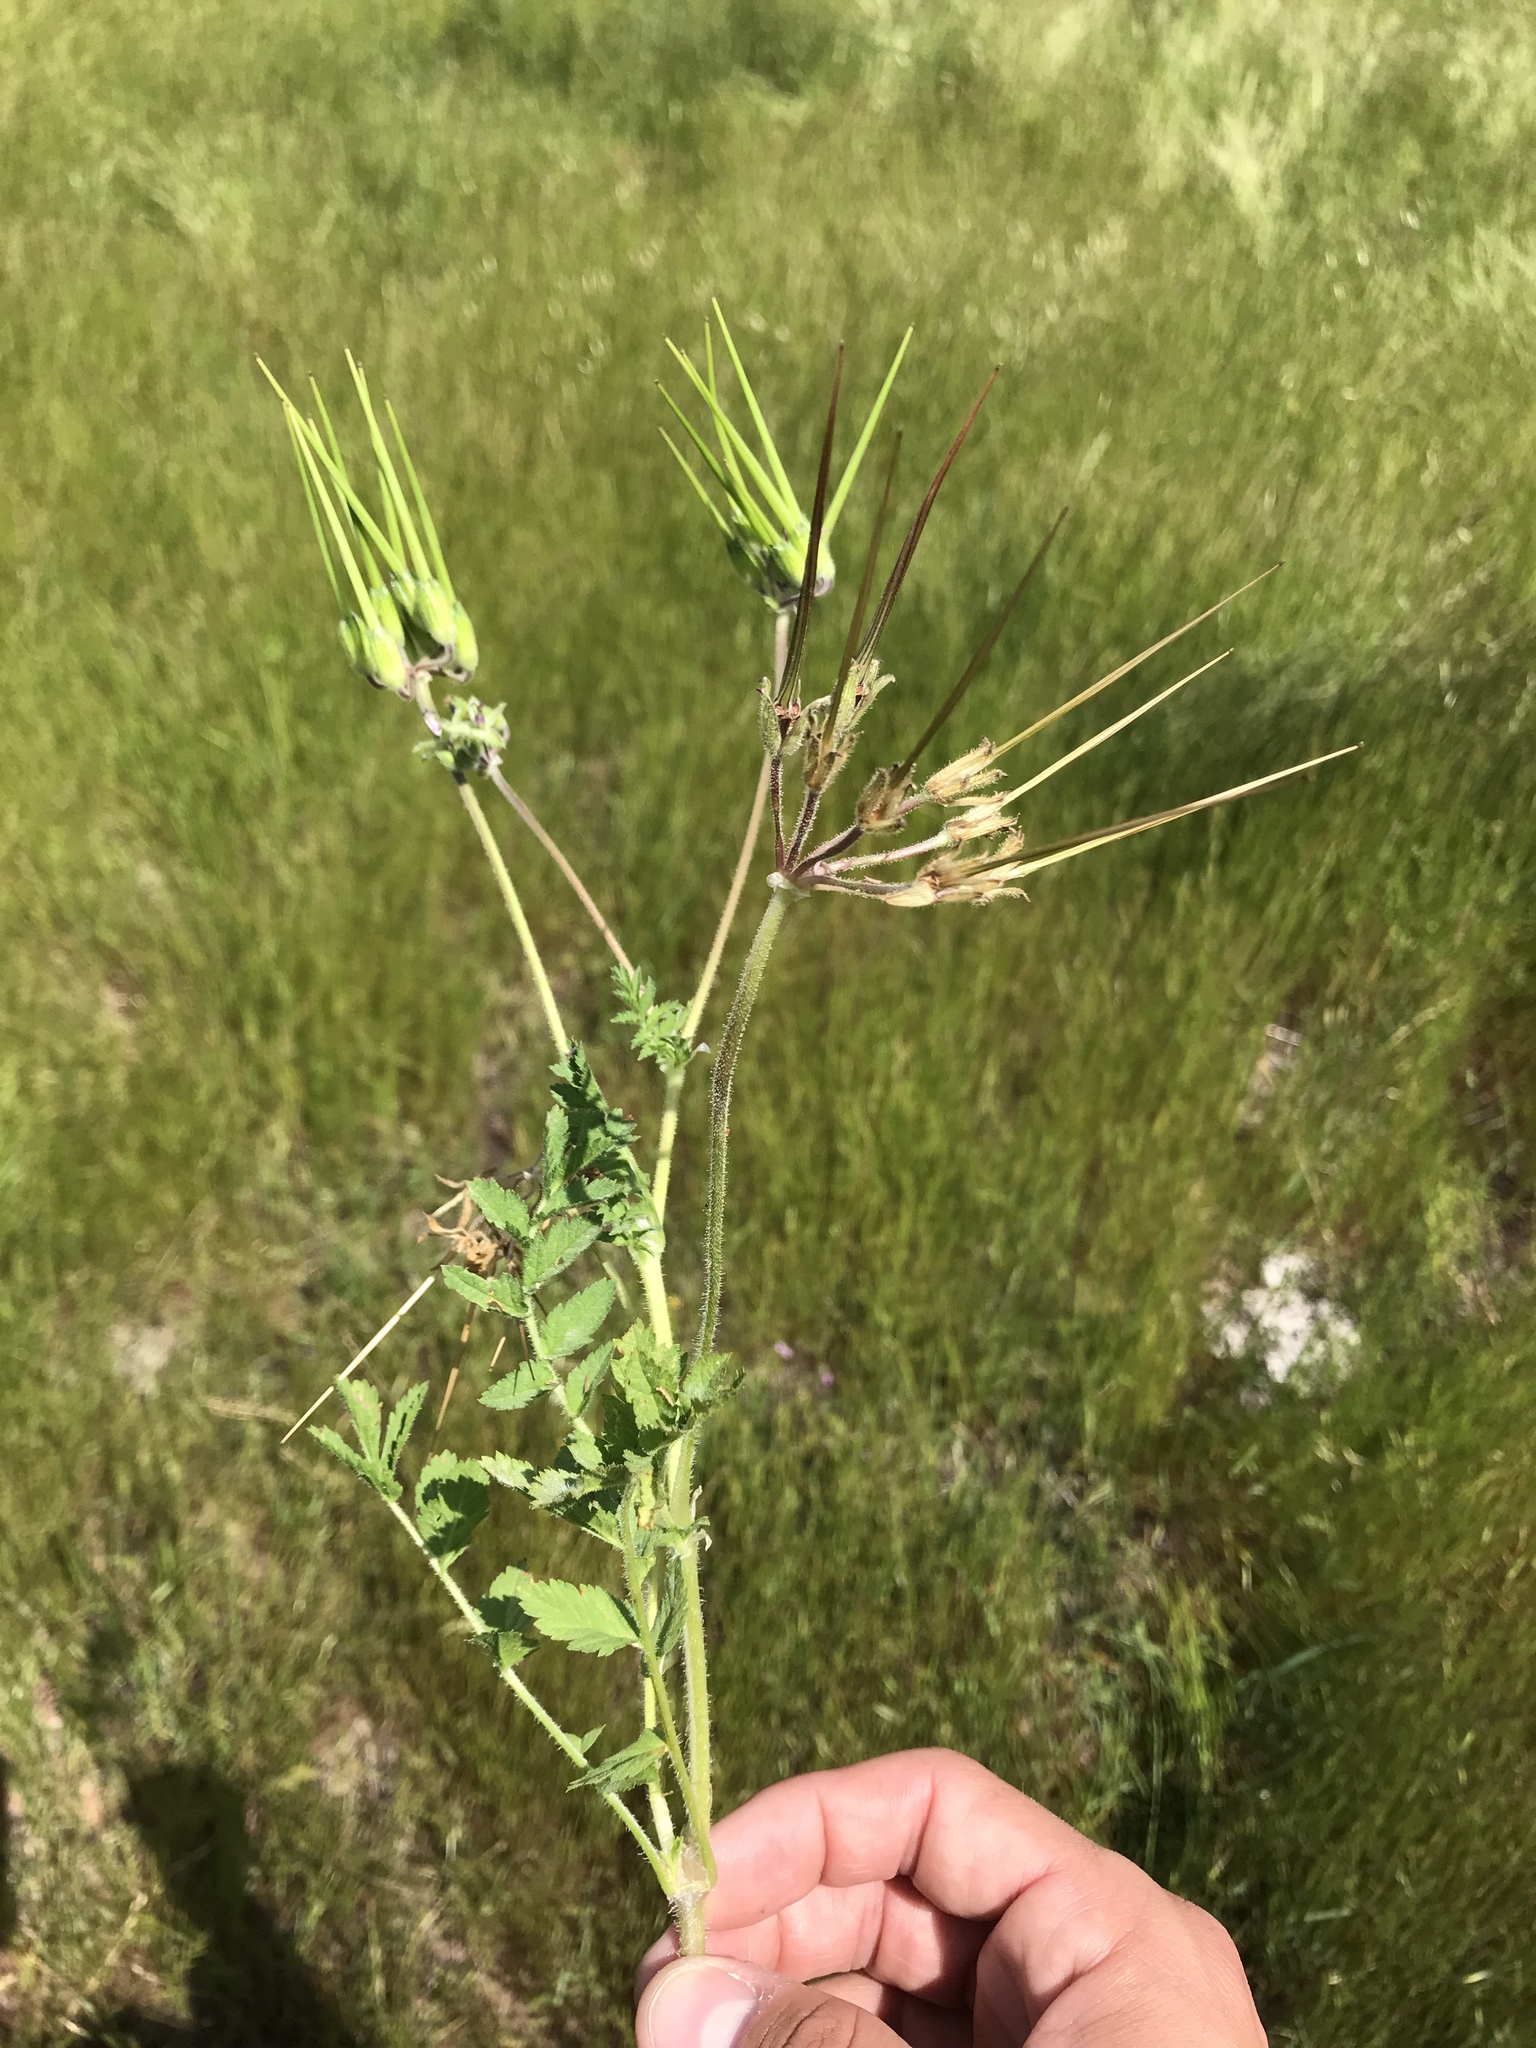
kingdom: Plantae
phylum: Tracheophyta
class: Magnoliopsida
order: Geraniales
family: Geraniaceae
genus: Erodium
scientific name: Erodium moschatum
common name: Musk stork's-bill
